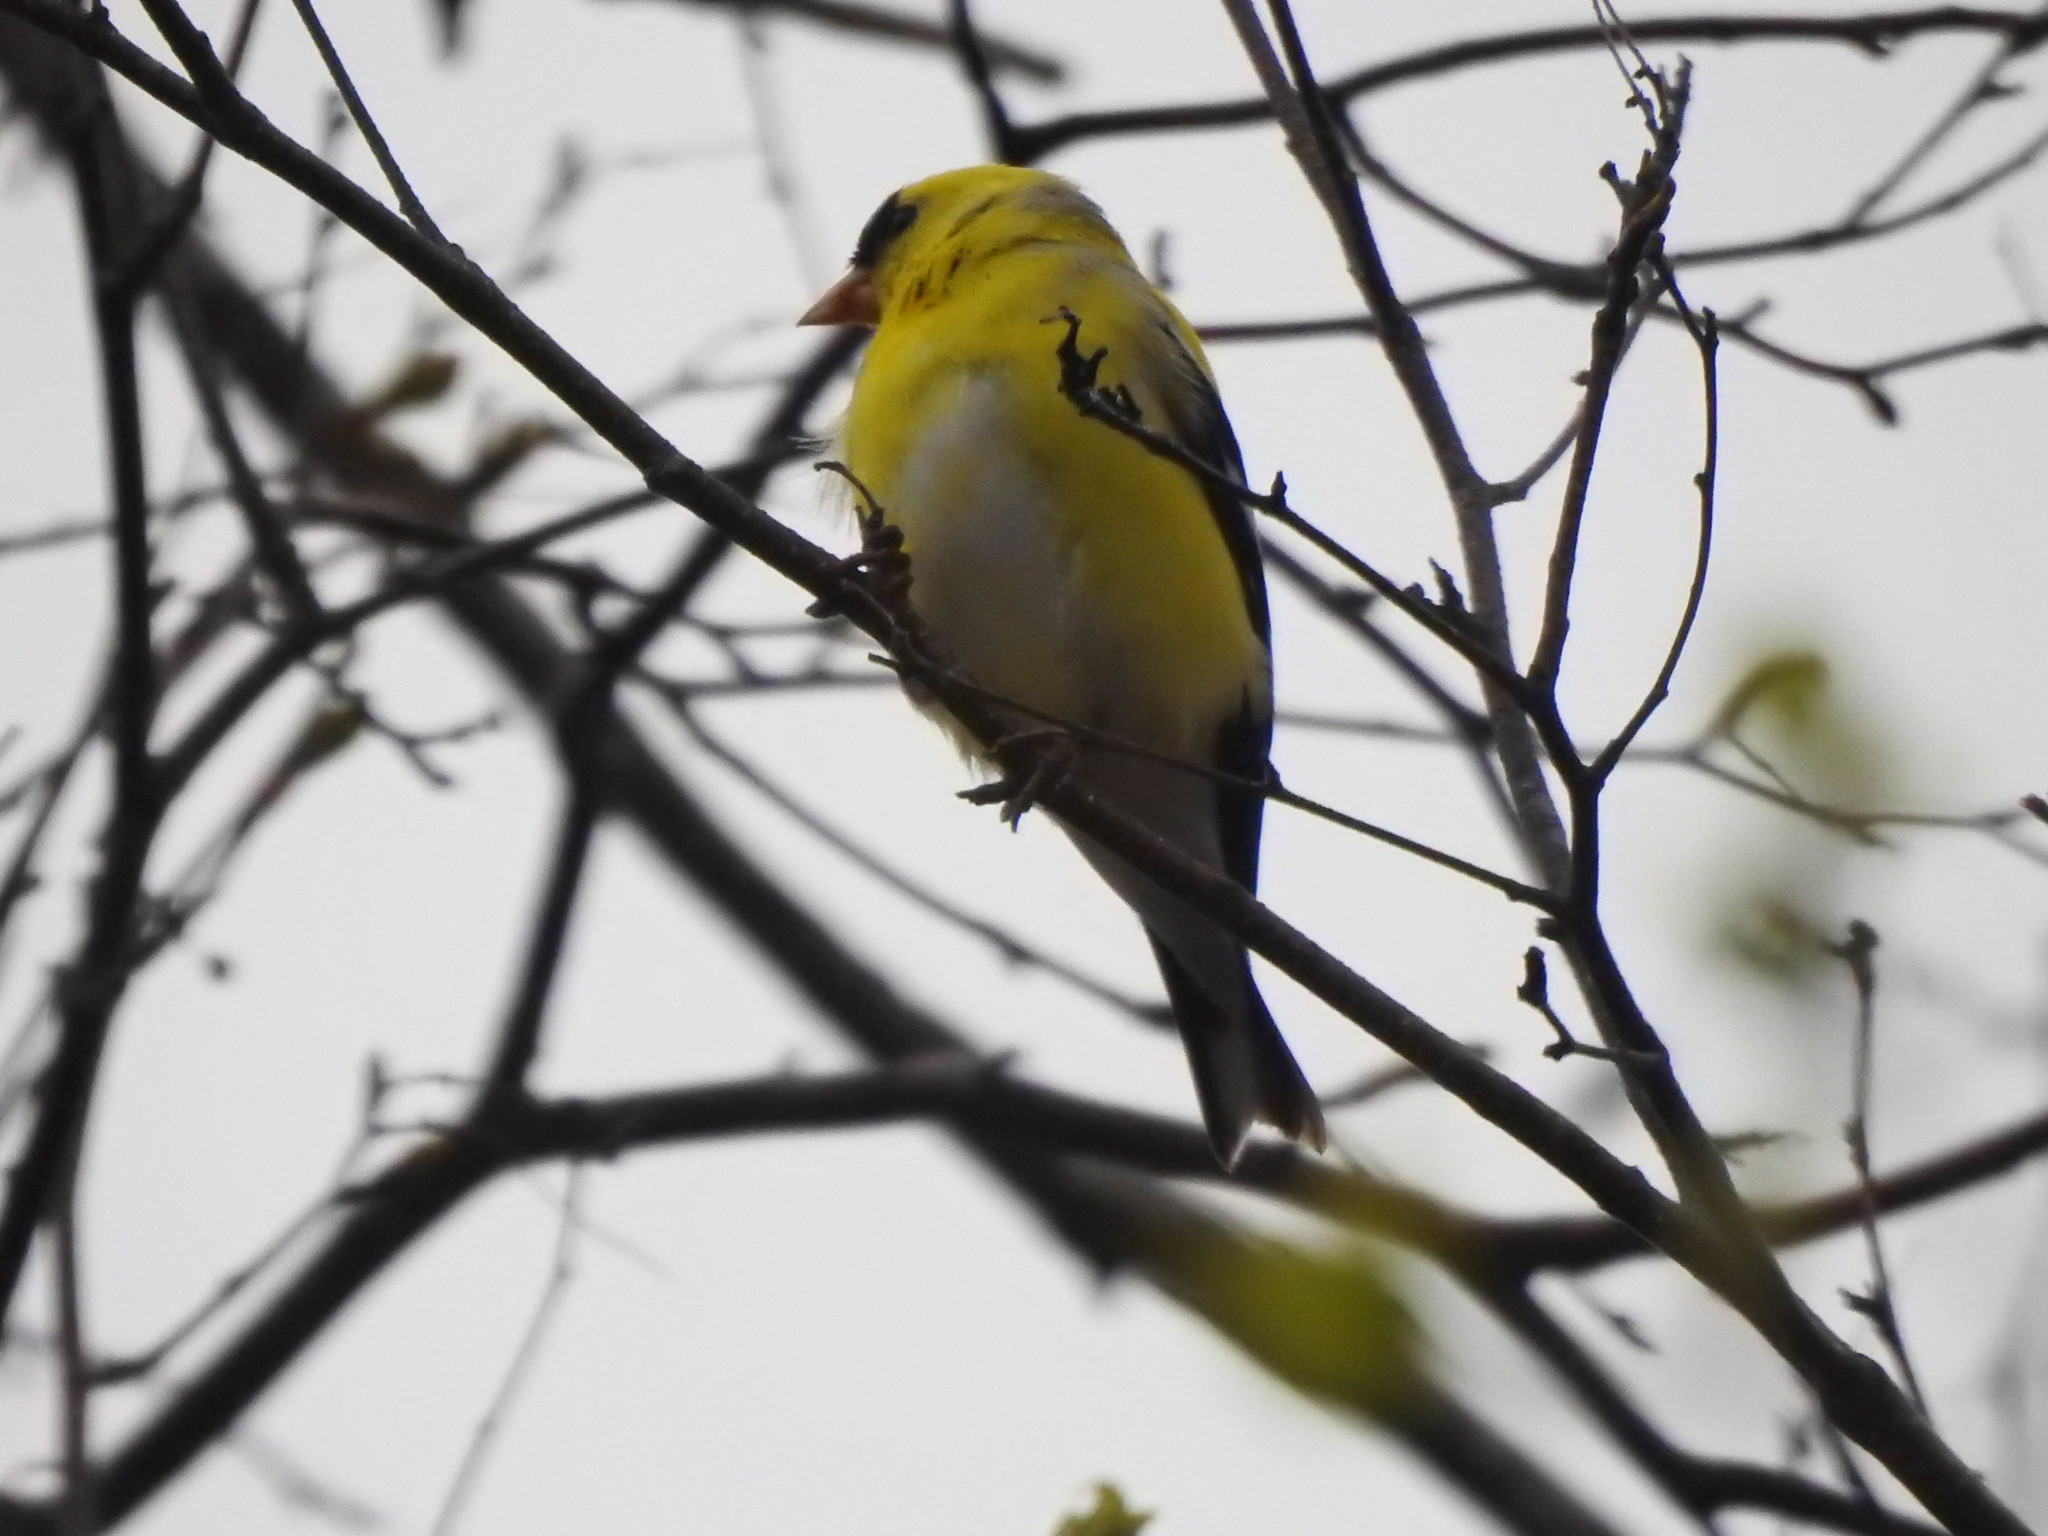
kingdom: Animalia
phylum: Chordata
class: Aves
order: Passeriformes
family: Fringillidae
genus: Spinus
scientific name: Spinus tristis
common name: American goldfinch
